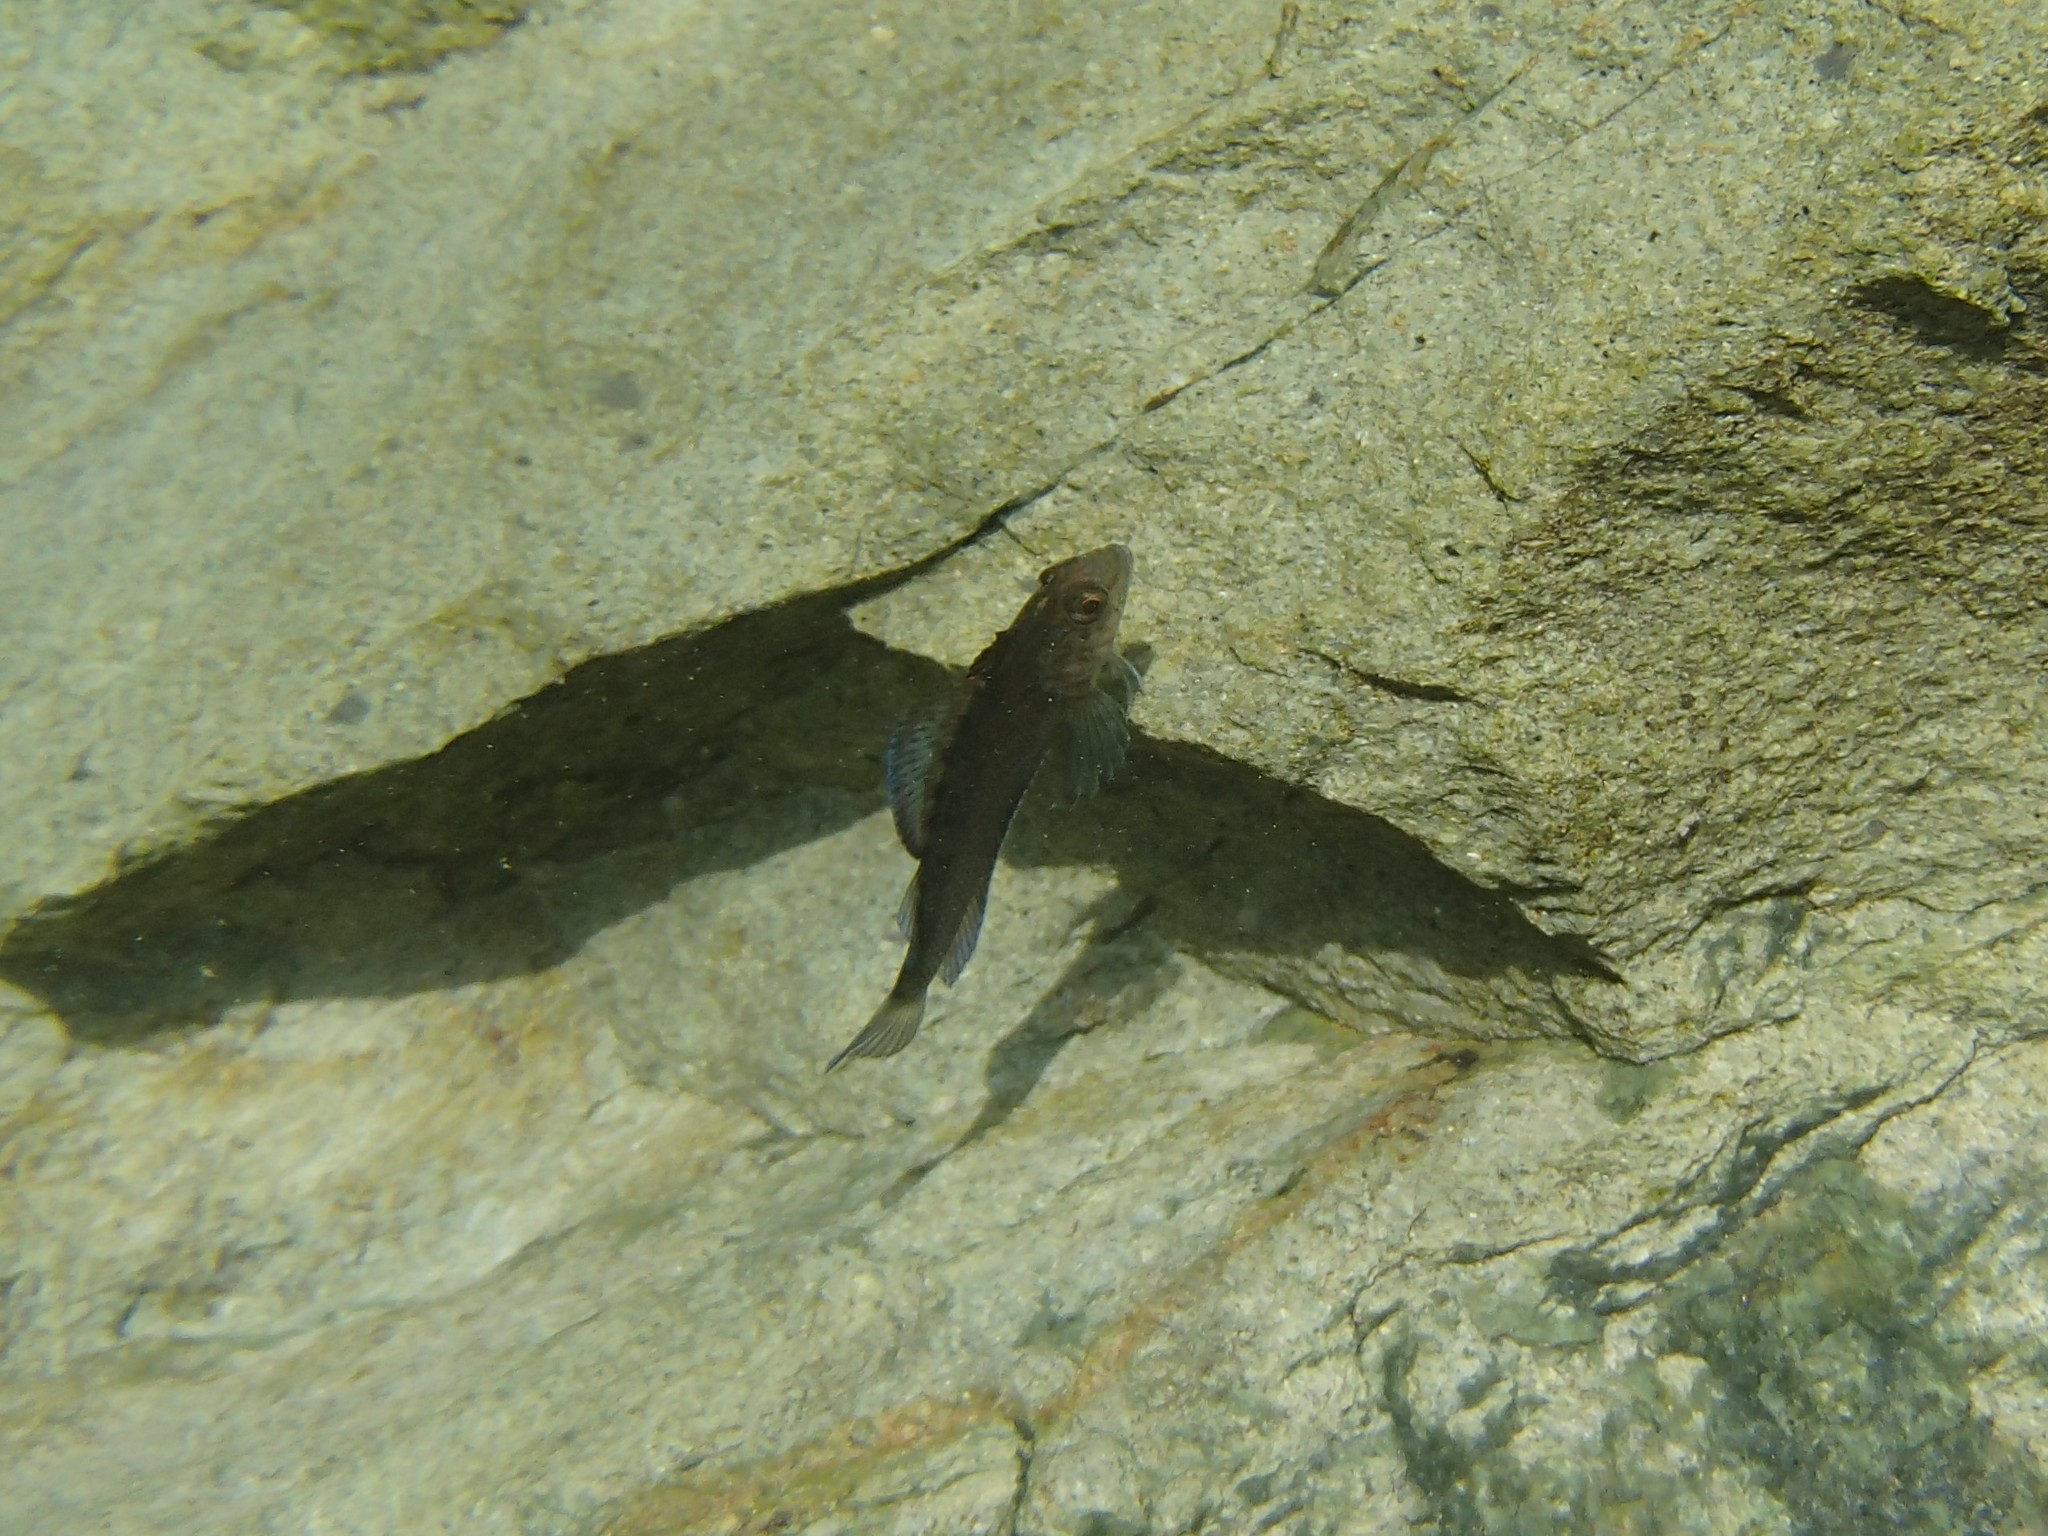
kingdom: Animalia
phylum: Chordata
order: Perciformes
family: Tripterygiidae
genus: Forsterygion
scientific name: Forsterygion lapillum
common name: Common triplefin
